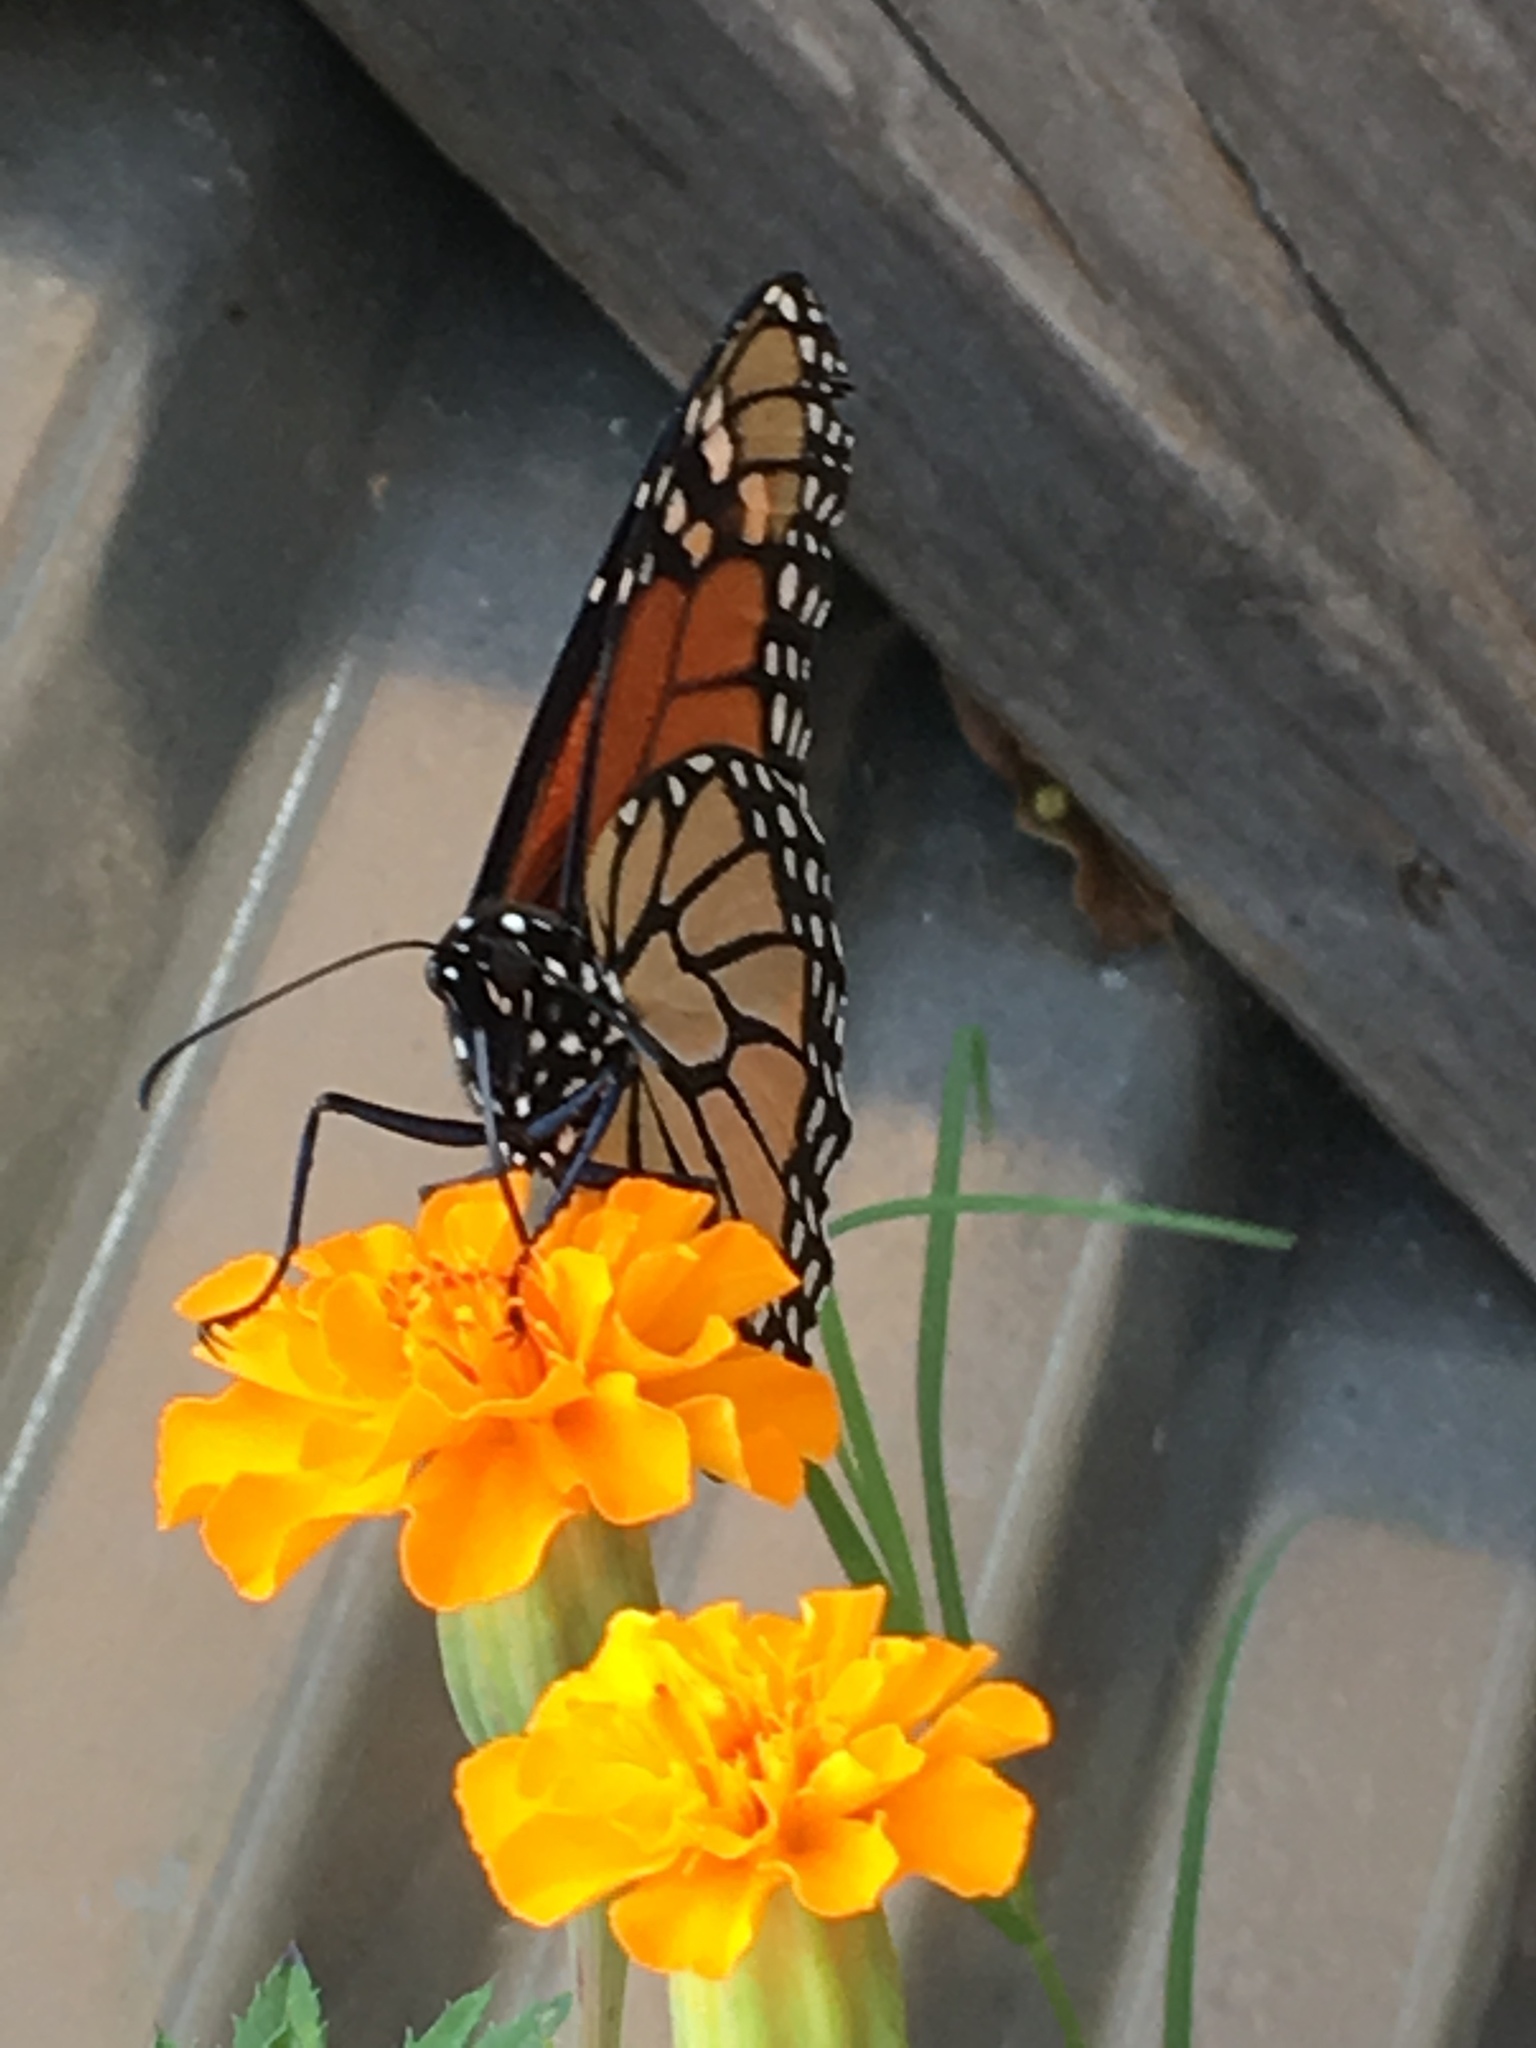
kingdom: Animalia
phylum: Arthropoda
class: Insecta
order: Lepidoptera
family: Nymphalidae
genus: Danaus
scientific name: Danaus plexippus
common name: Monarch
